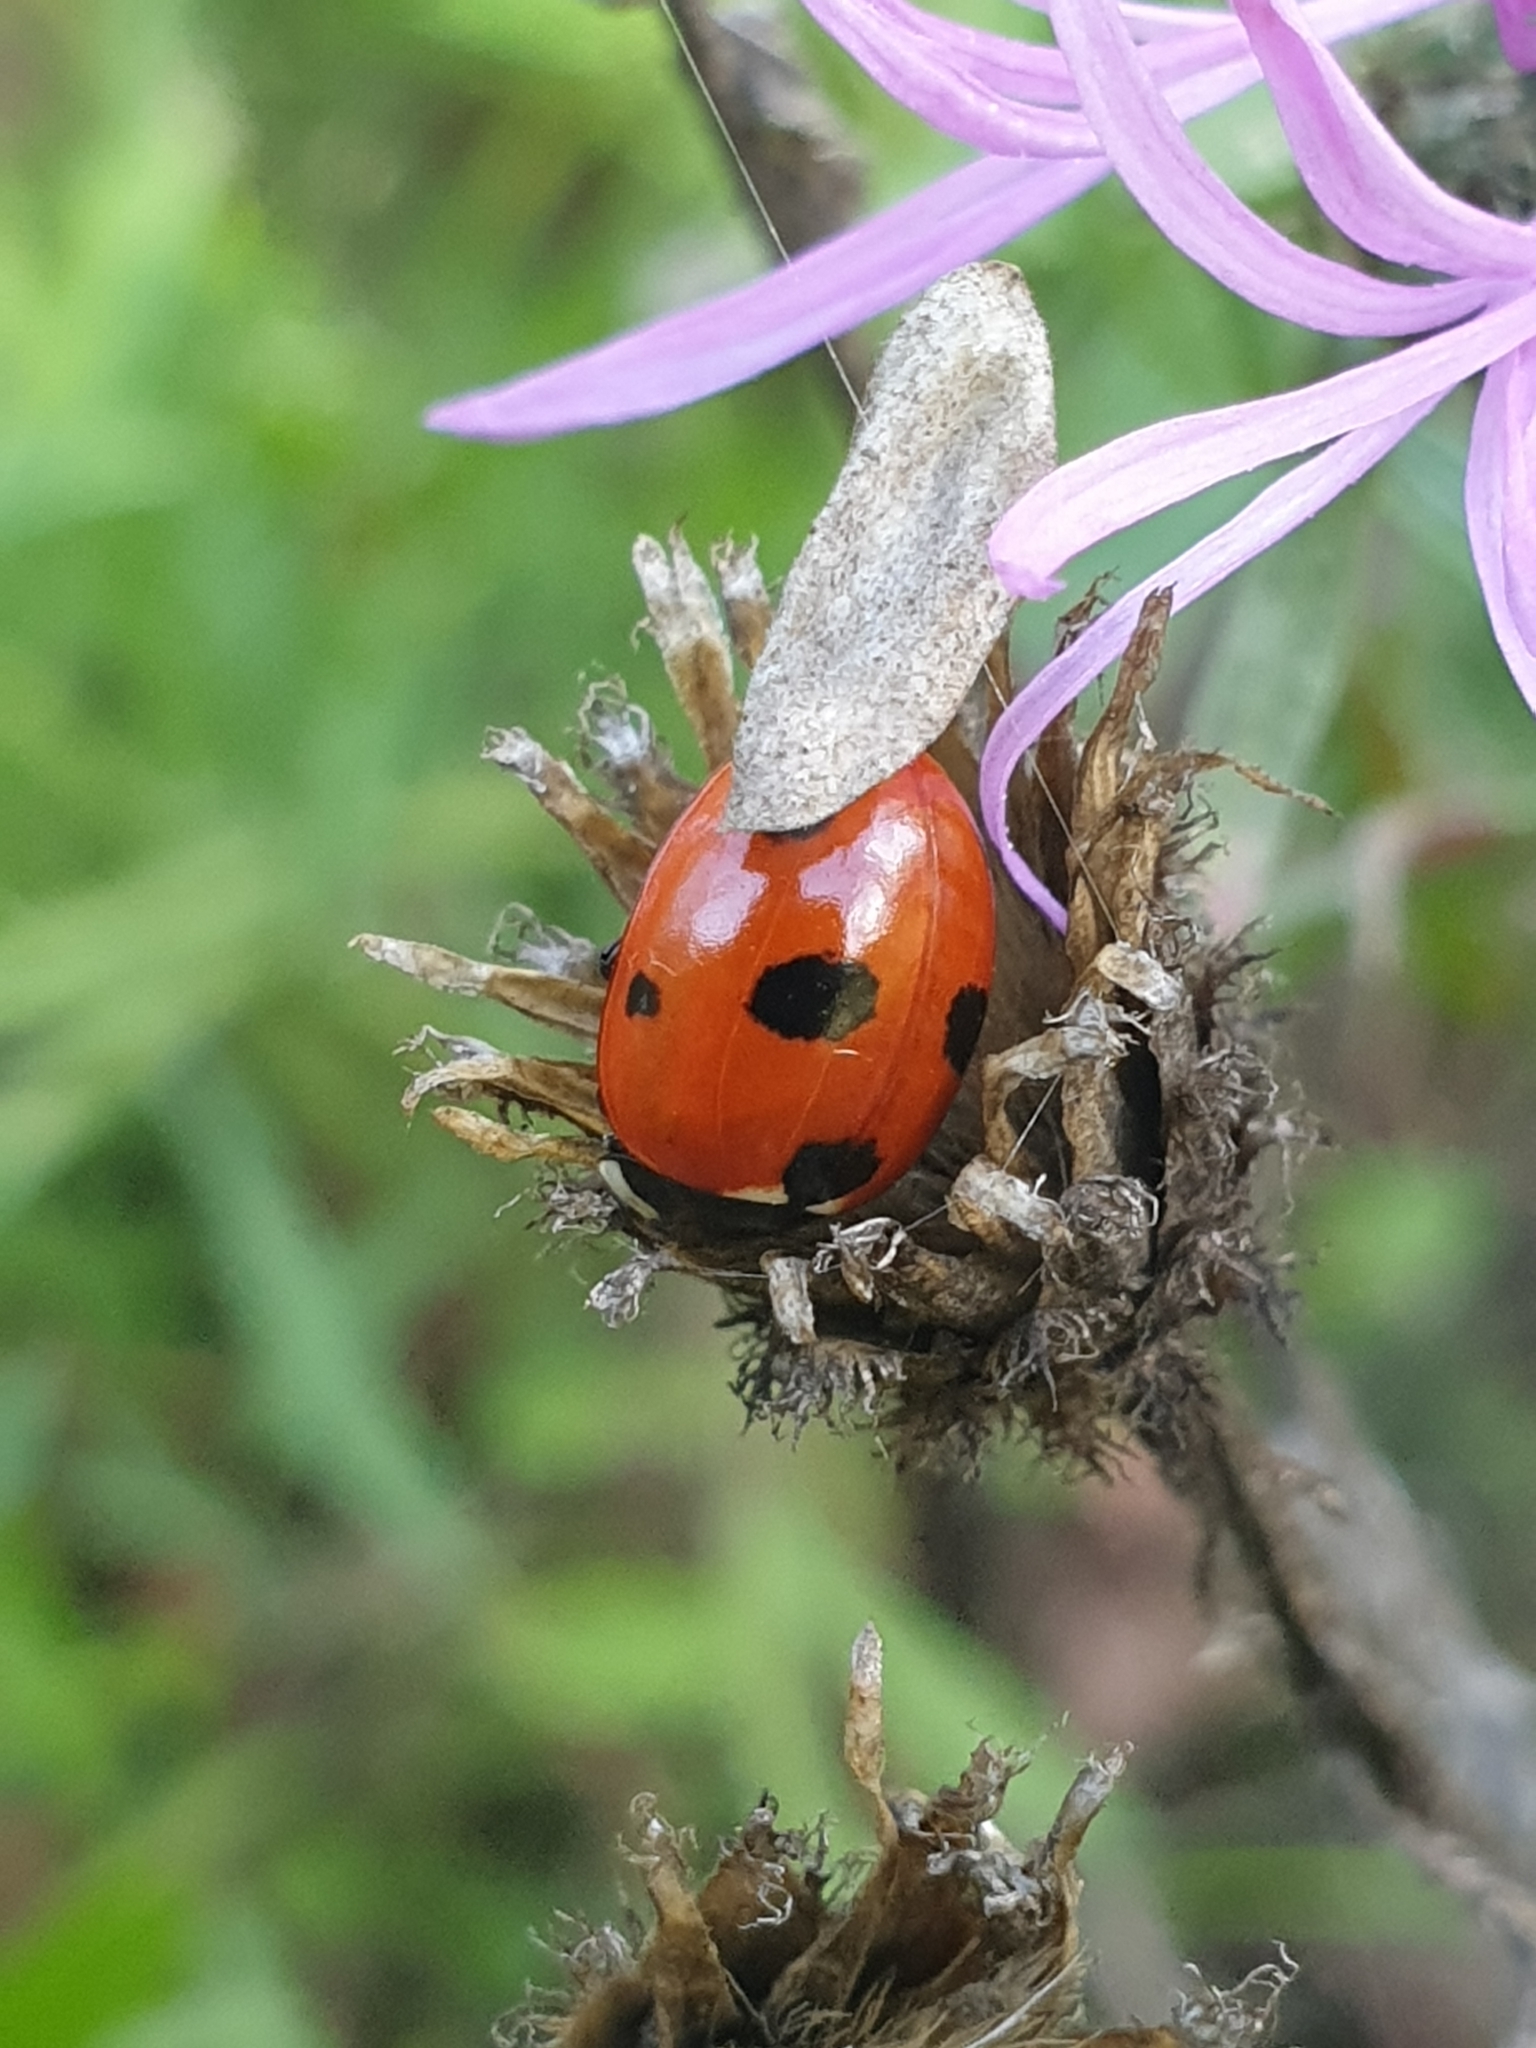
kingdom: Animalia
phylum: Arthropoda
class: Insecta
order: Coleoptera
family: Coccinellidae
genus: Coccinella
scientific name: Coccinella septempunctata
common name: Sevenspotted lady beetle
